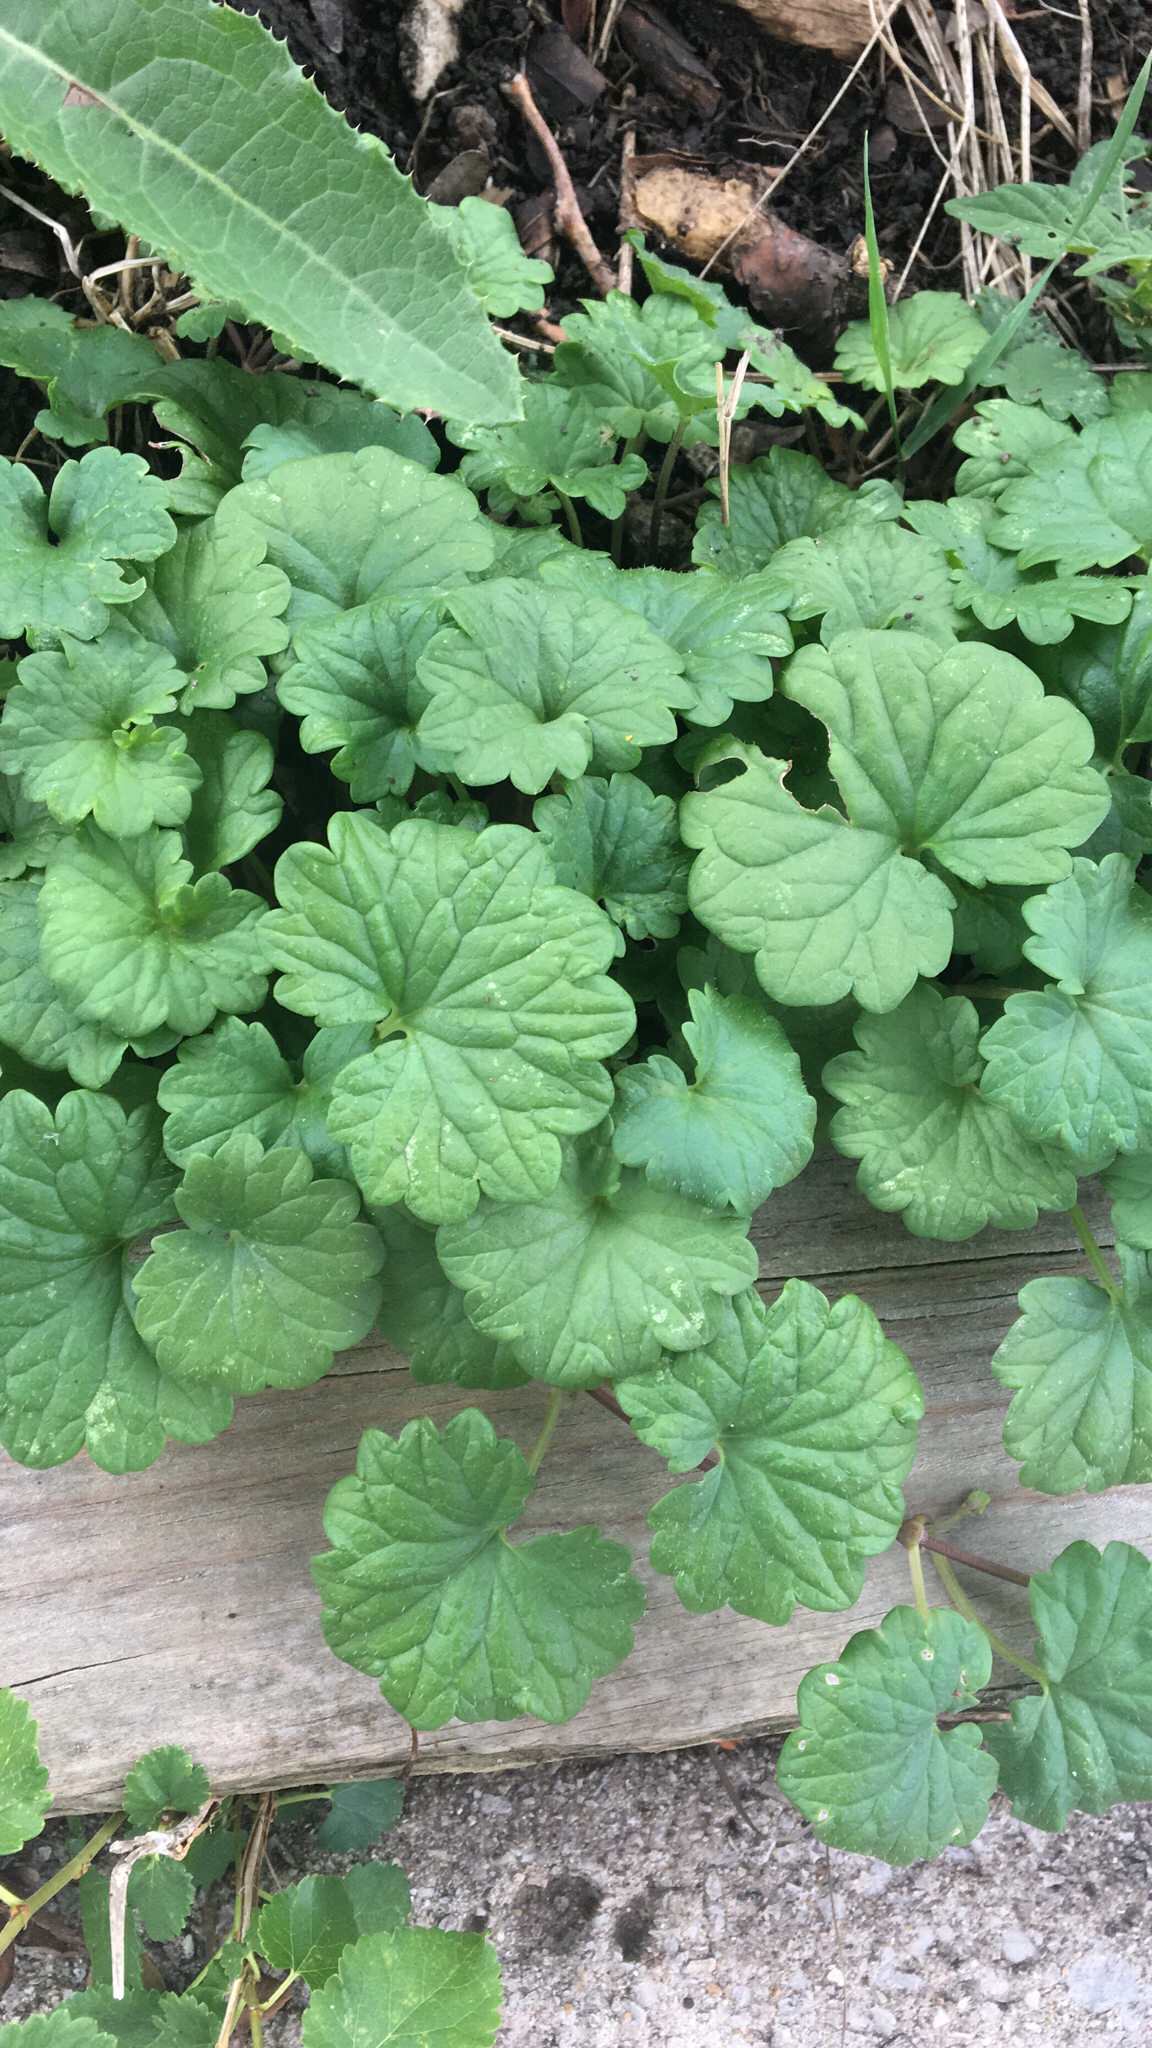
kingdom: Plantae
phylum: Tracheophyta
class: Magnoliopsida
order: Lamiales
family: Lamiaceae
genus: Glechoma
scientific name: Glechoma hederacea
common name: Ground ivy
